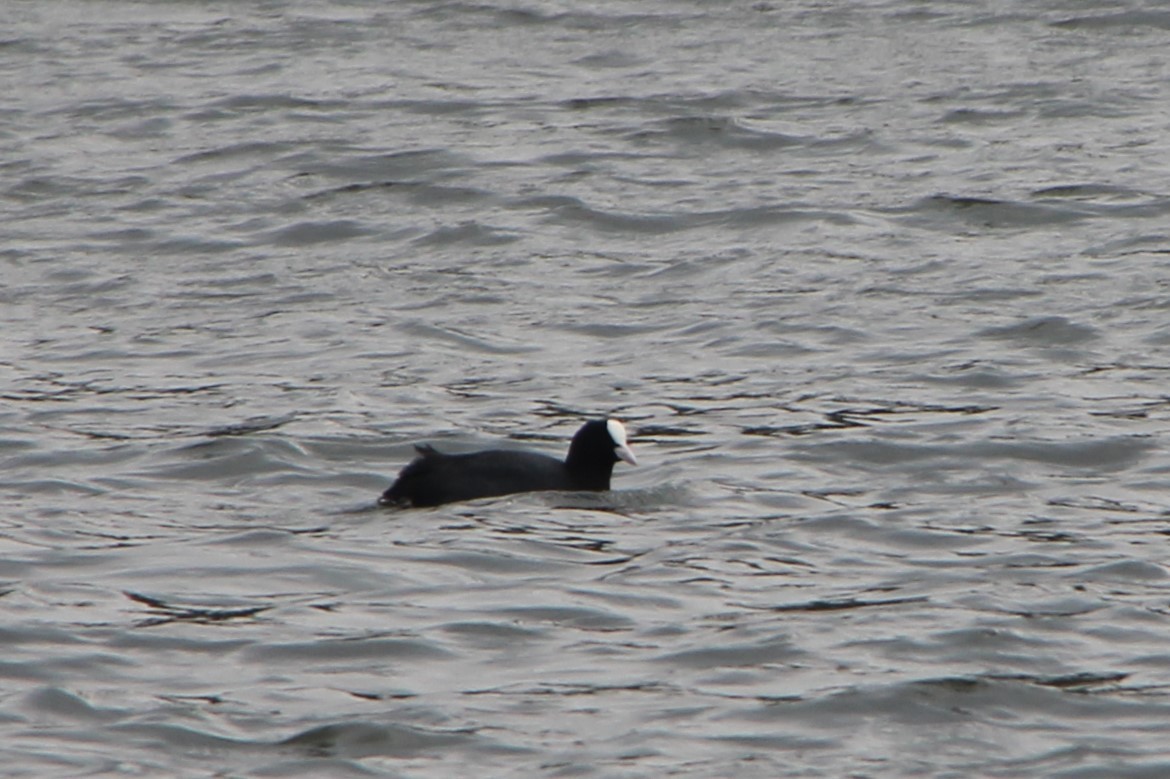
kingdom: Animalia
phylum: Chordata
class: Aves
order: Gruiformes
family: Rallidae
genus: Fulica
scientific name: Fulica atra
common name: Eurasian coot
